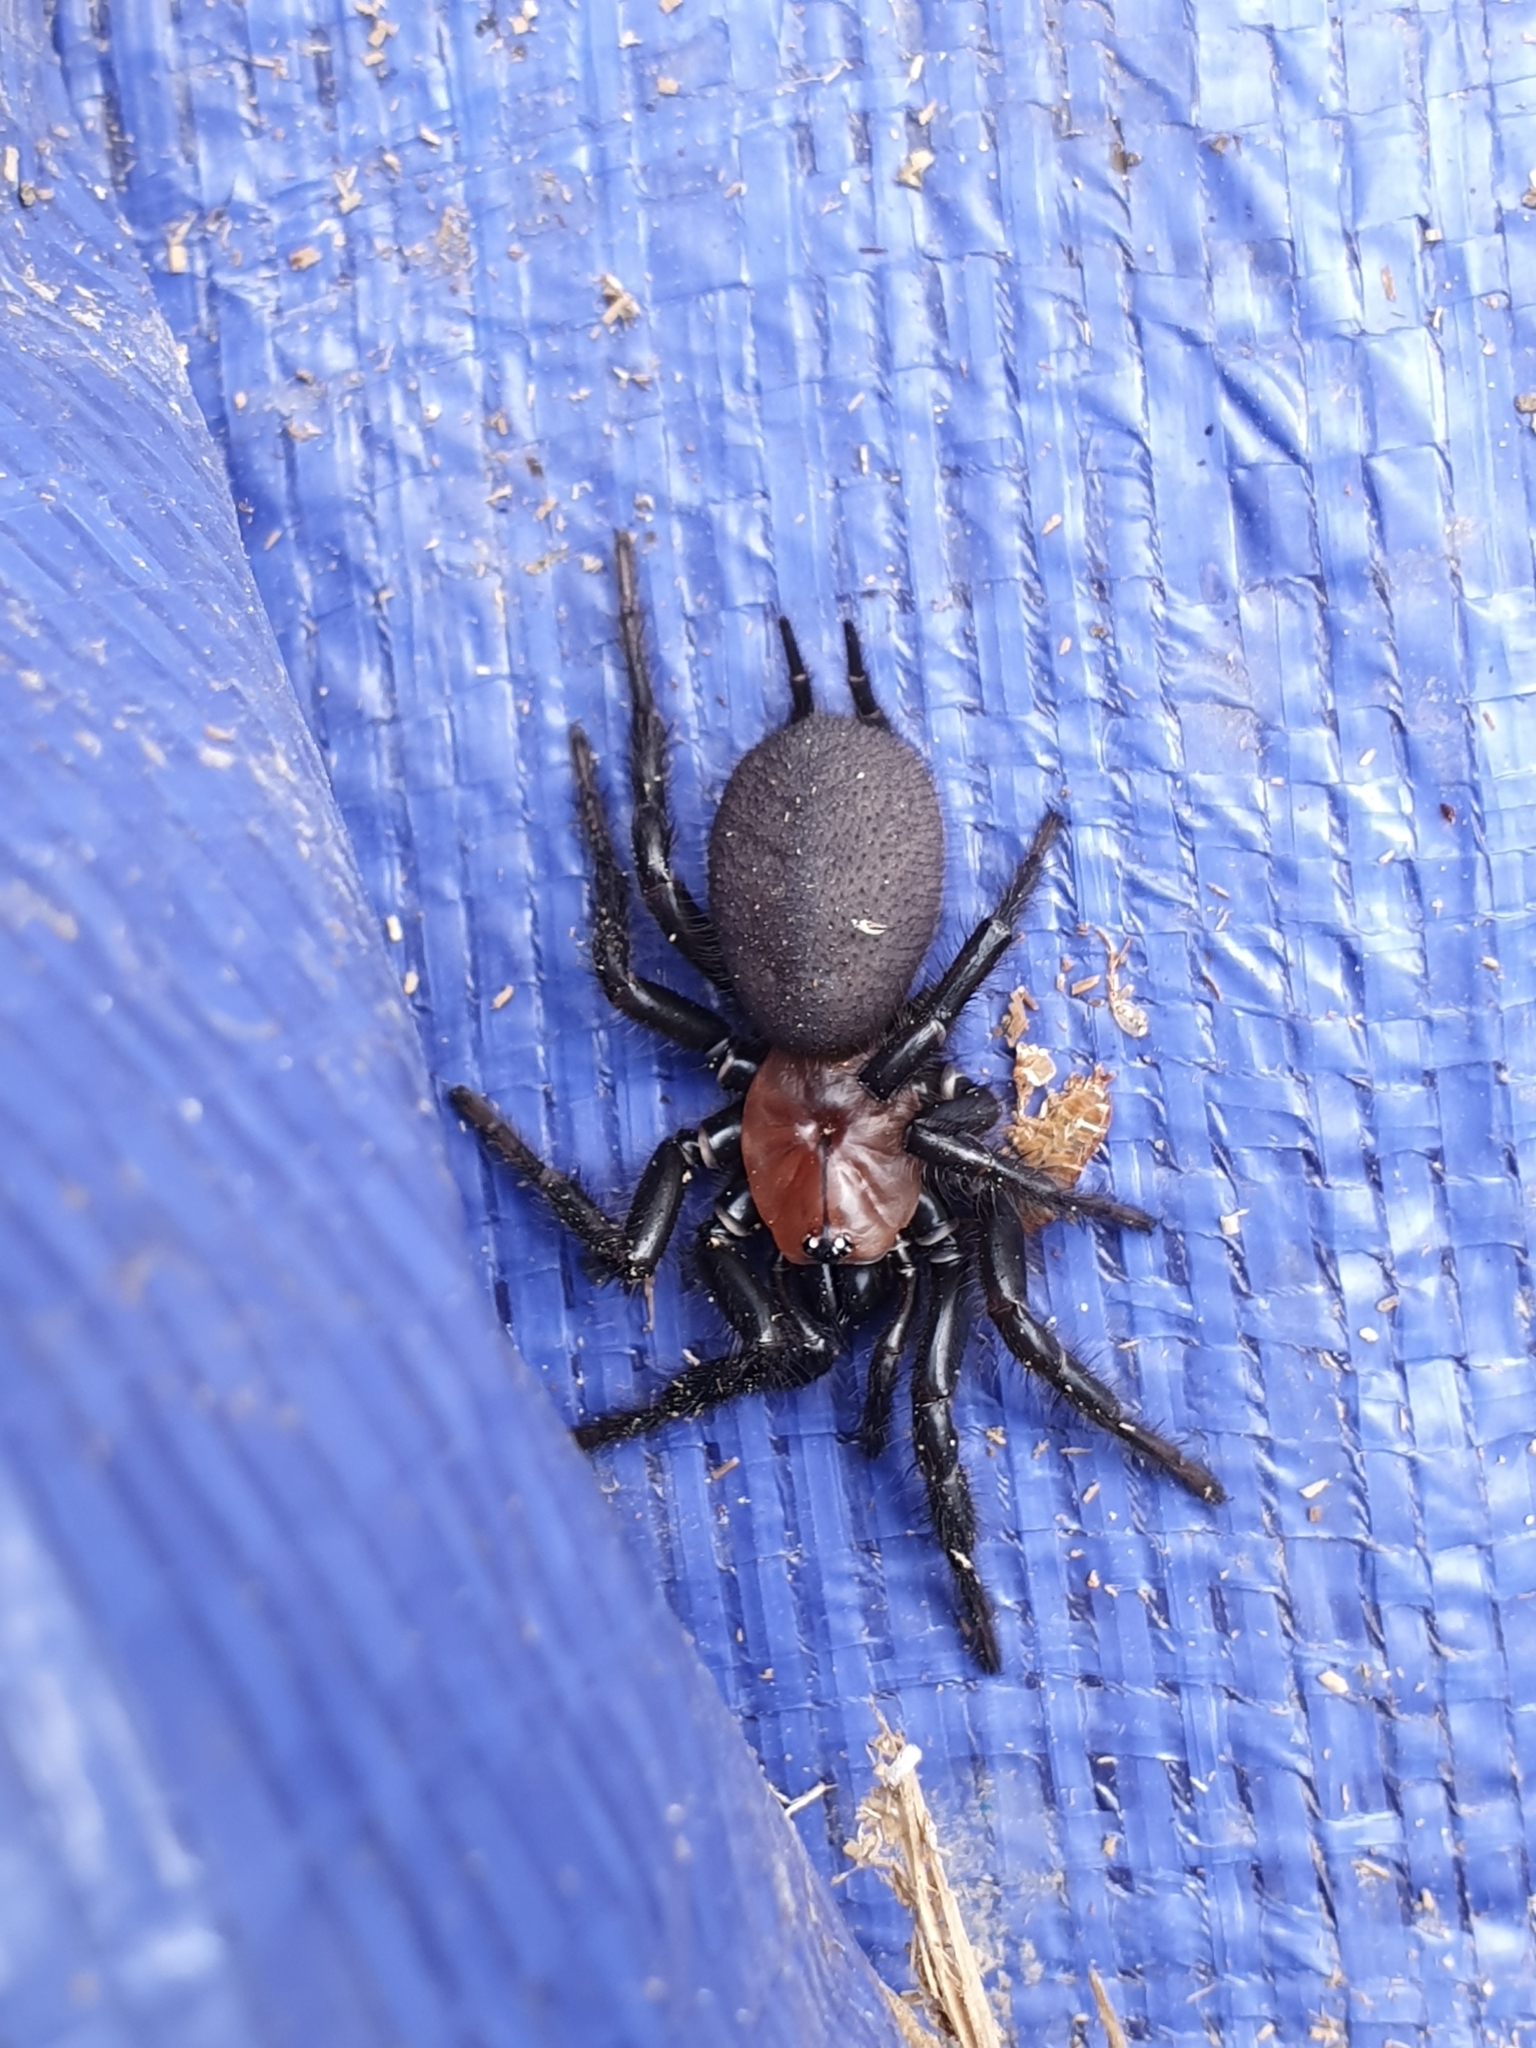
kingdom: Animalia
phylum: Arthropoda
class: Arachnida
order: Araneae
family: Porrhothelidae
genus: Porrhothele
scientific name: Porrhothele antipodiana
